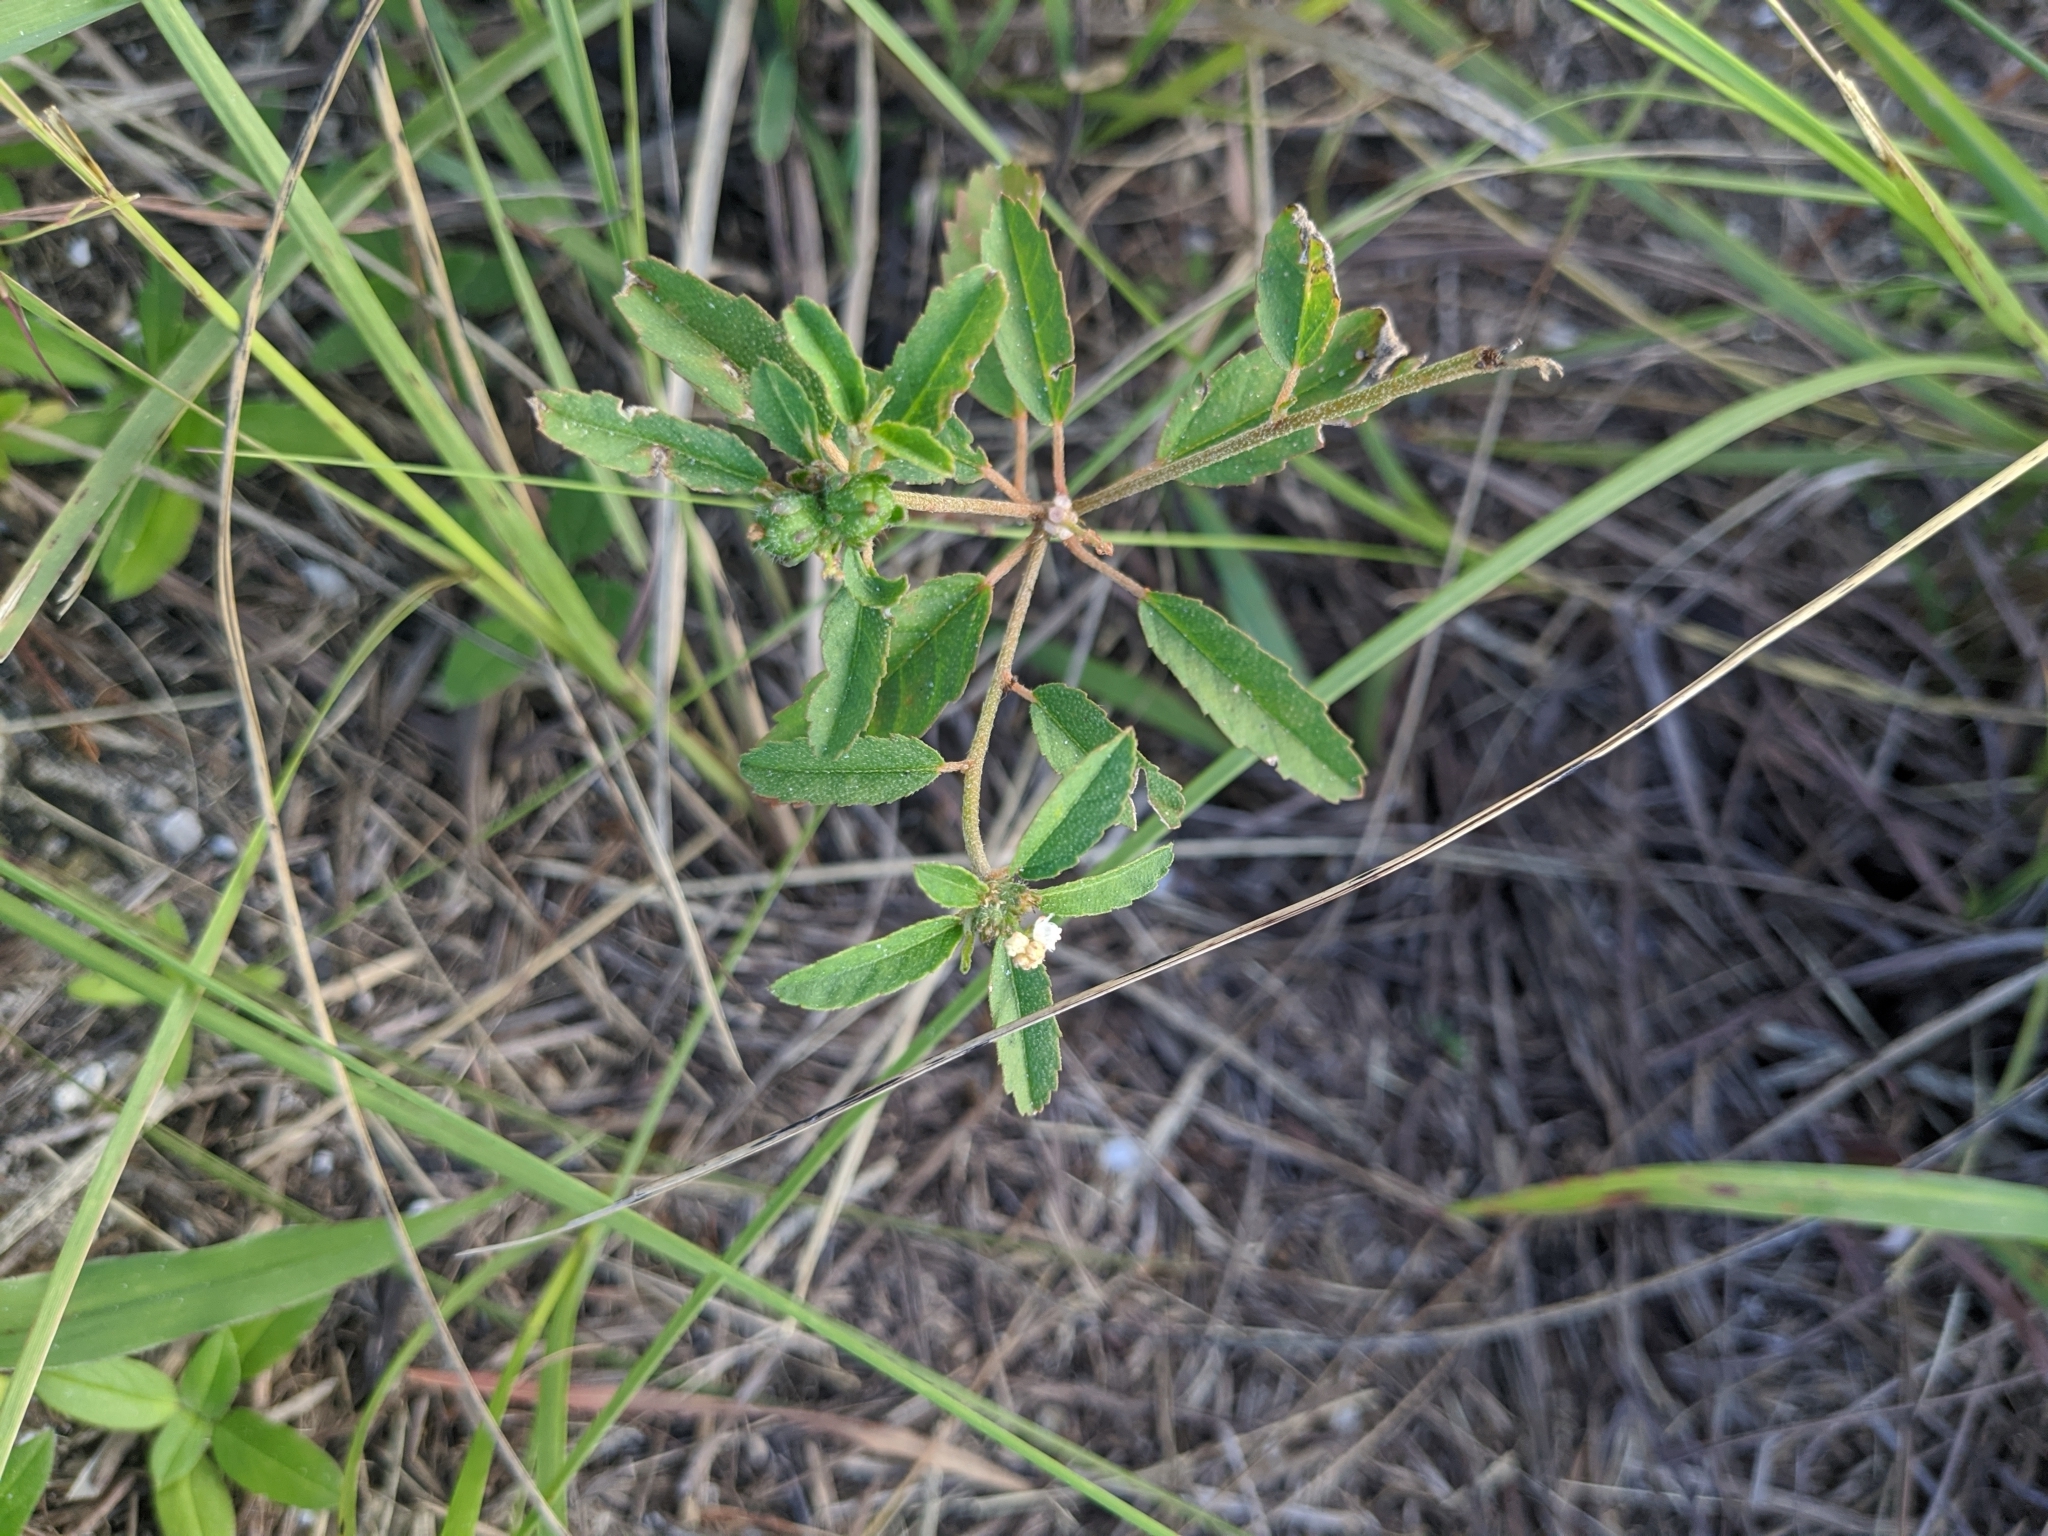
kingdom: Plantae
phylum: Tracheophyta
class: Magnoliopsida
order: Malpighiales
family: Euphorbiaceae
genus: Croton
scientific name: Croton glandulosus
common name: Tropic croton
